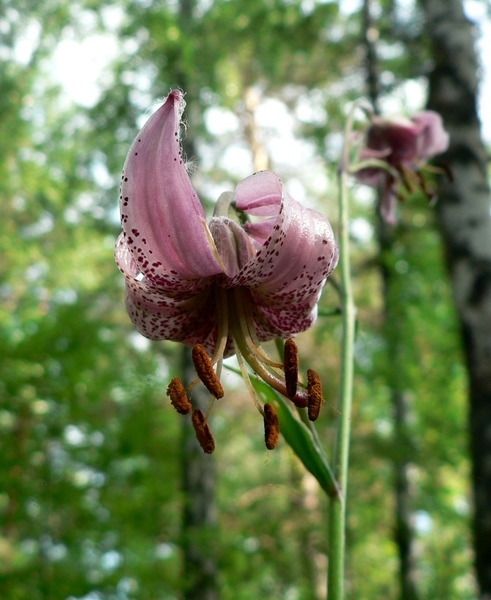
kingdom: Plantae
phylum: Tracheophyta
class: Liliopsida
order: Liliales
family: Liliaceae
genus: Lilium
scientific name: Lilium martagon
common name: Martagon lily
